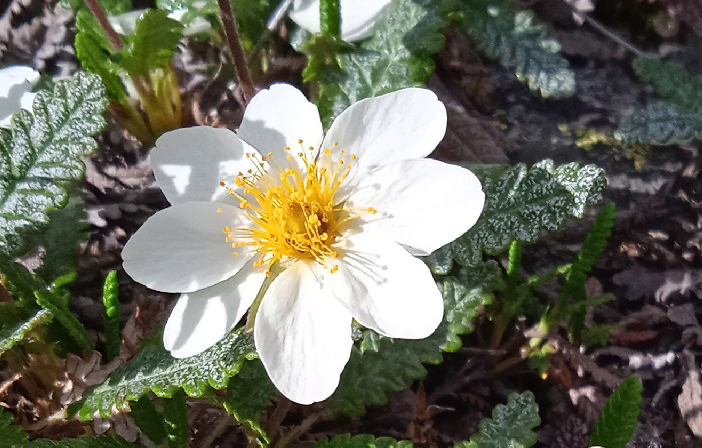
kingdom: Plantae
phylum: Tracheophyta
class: Magnoliopsida
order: Rosales
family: Rosaceae
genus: Dryas
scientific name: Dryas grandis
